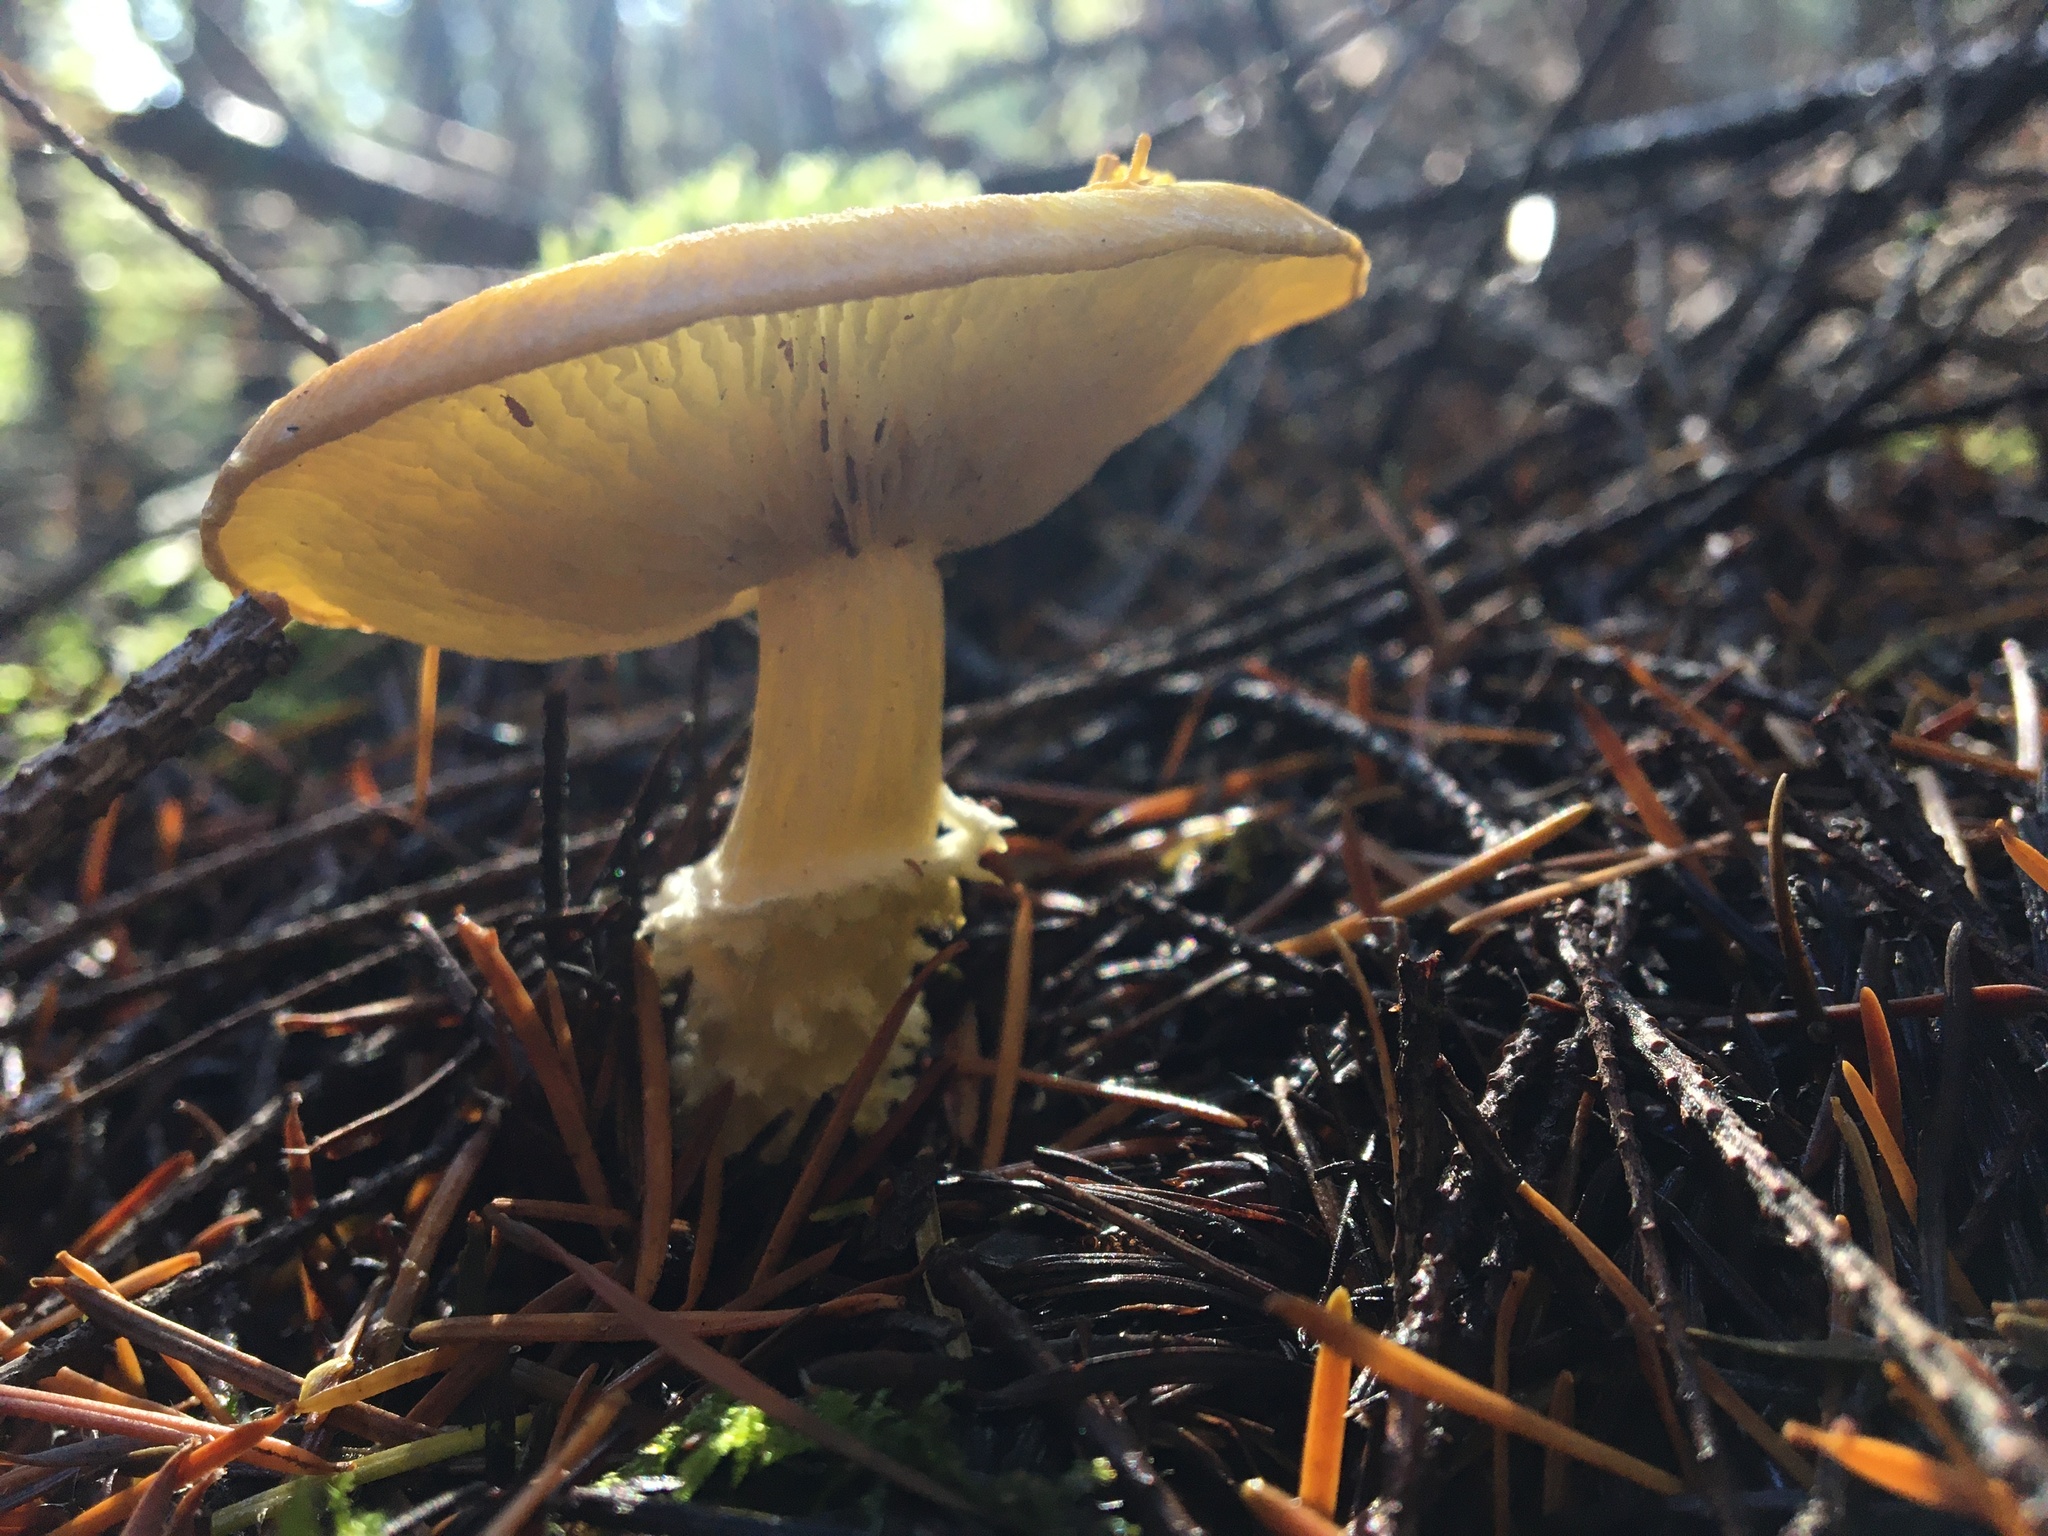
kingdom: Fungi
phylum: Basidiomycota
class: Agaricomycetes
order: Agaricales
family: Agaricaceae
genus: Floccularia
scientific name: Floccularia albolanaripes
